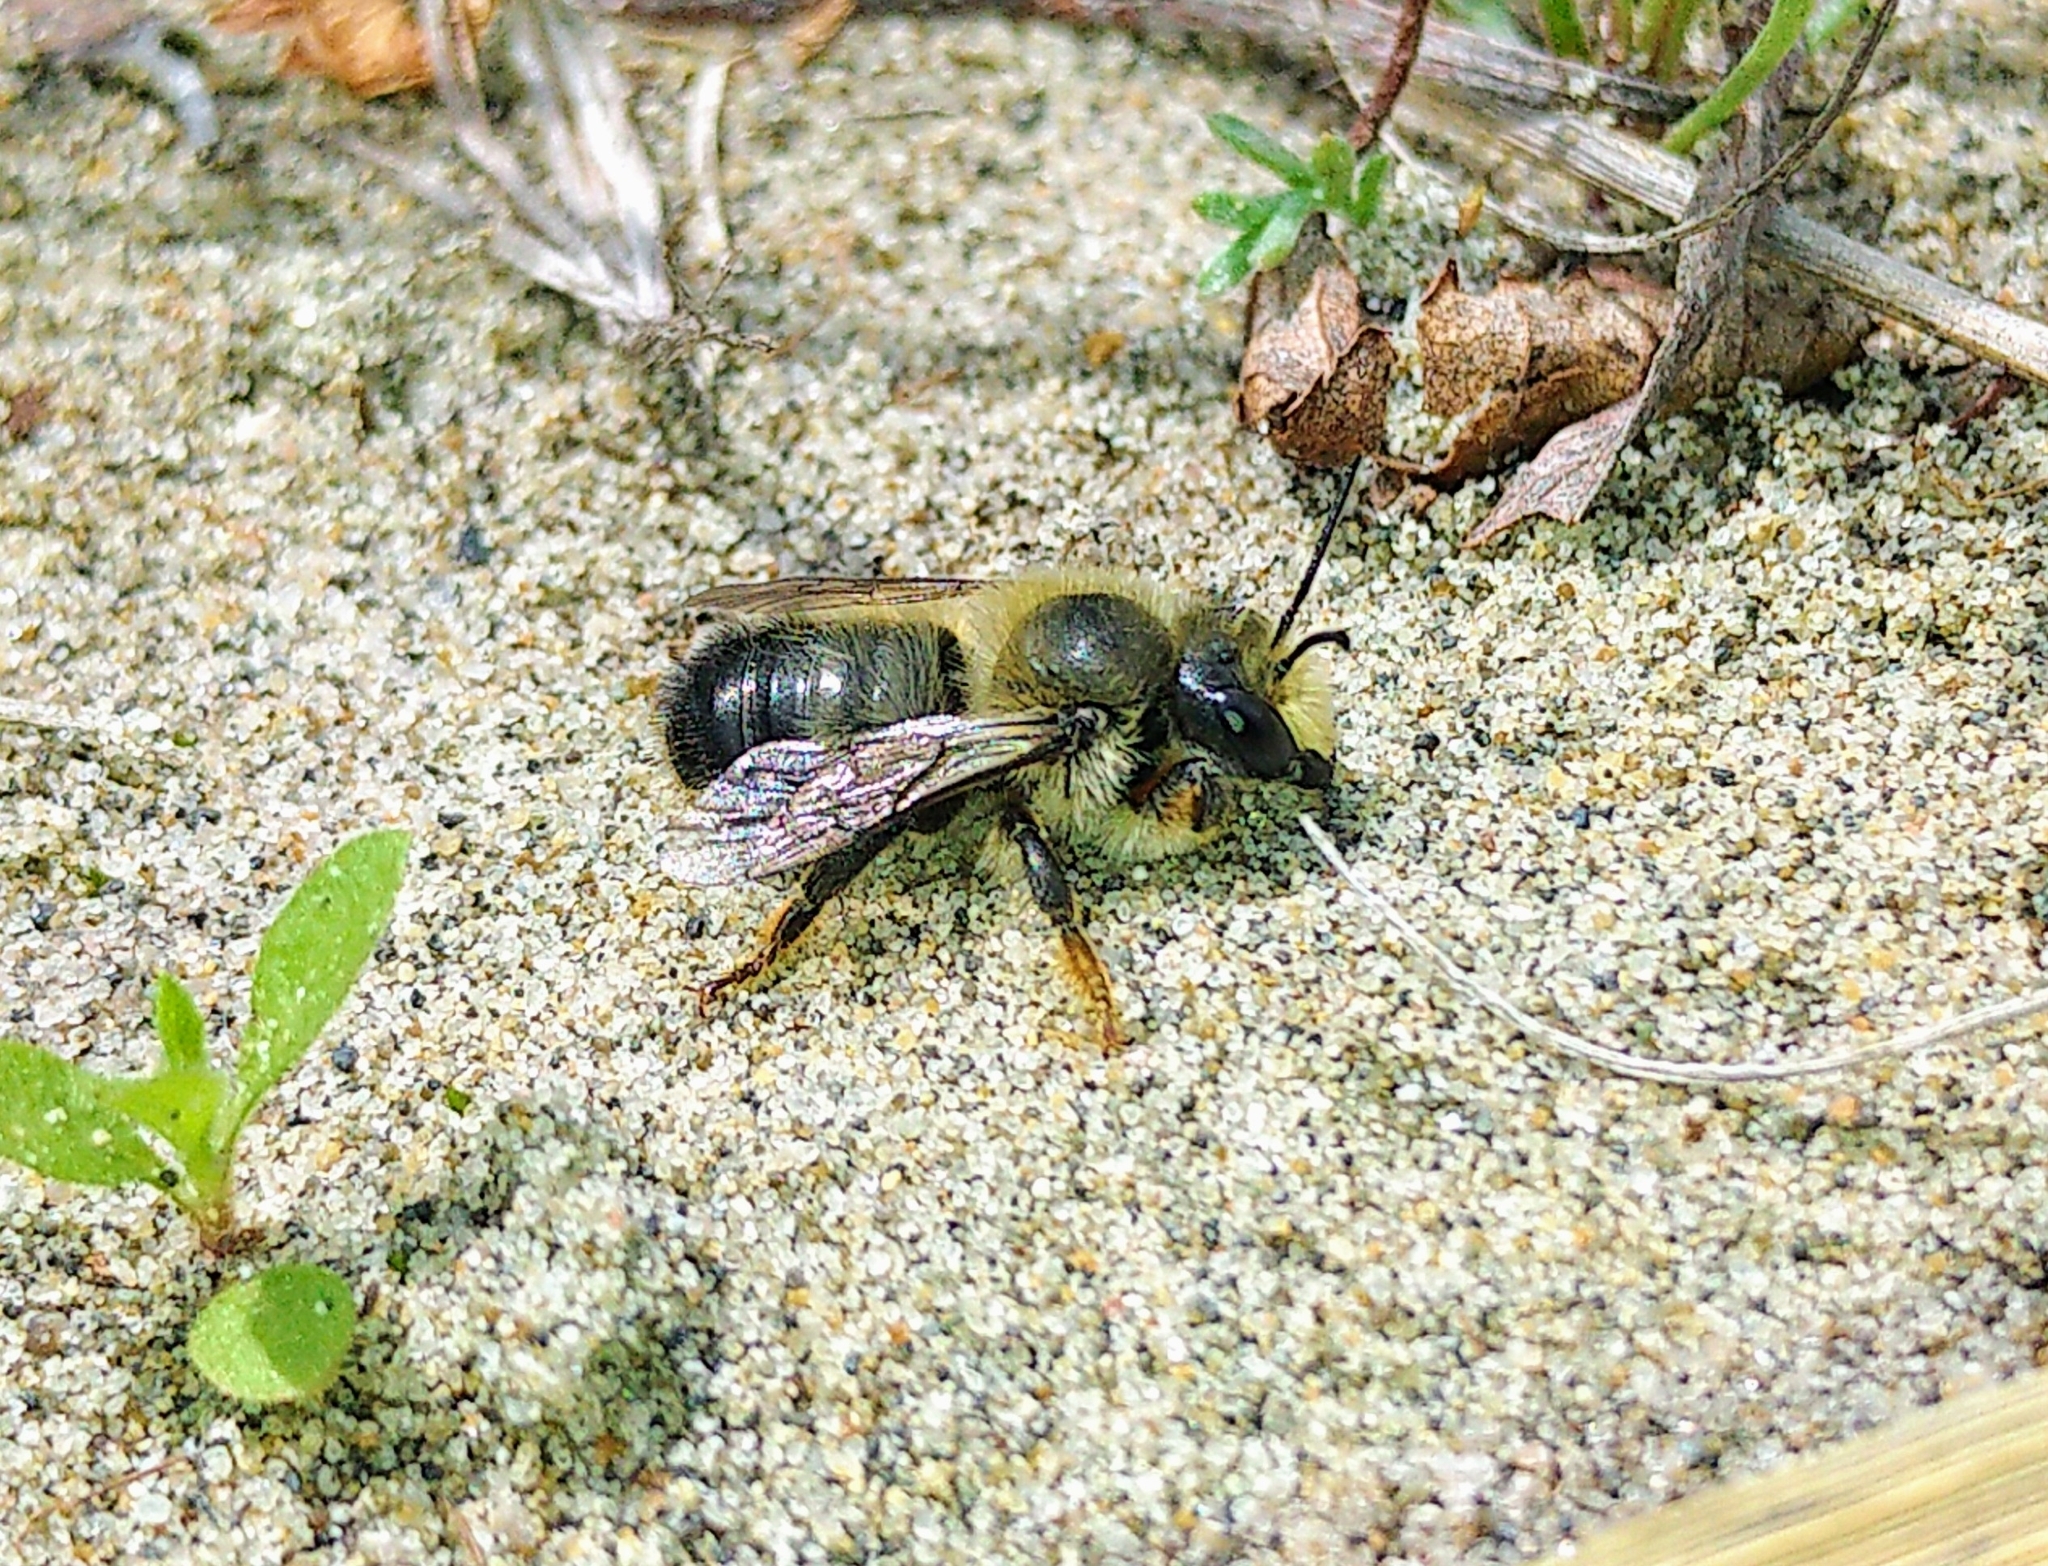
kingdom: Animalia
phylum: Arthropoda
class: Insecta
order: Hymenoptera
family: Megachilidae
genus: Megachile
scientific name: Megachile melanophaea
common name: Black-and-gray leafcutter bee
